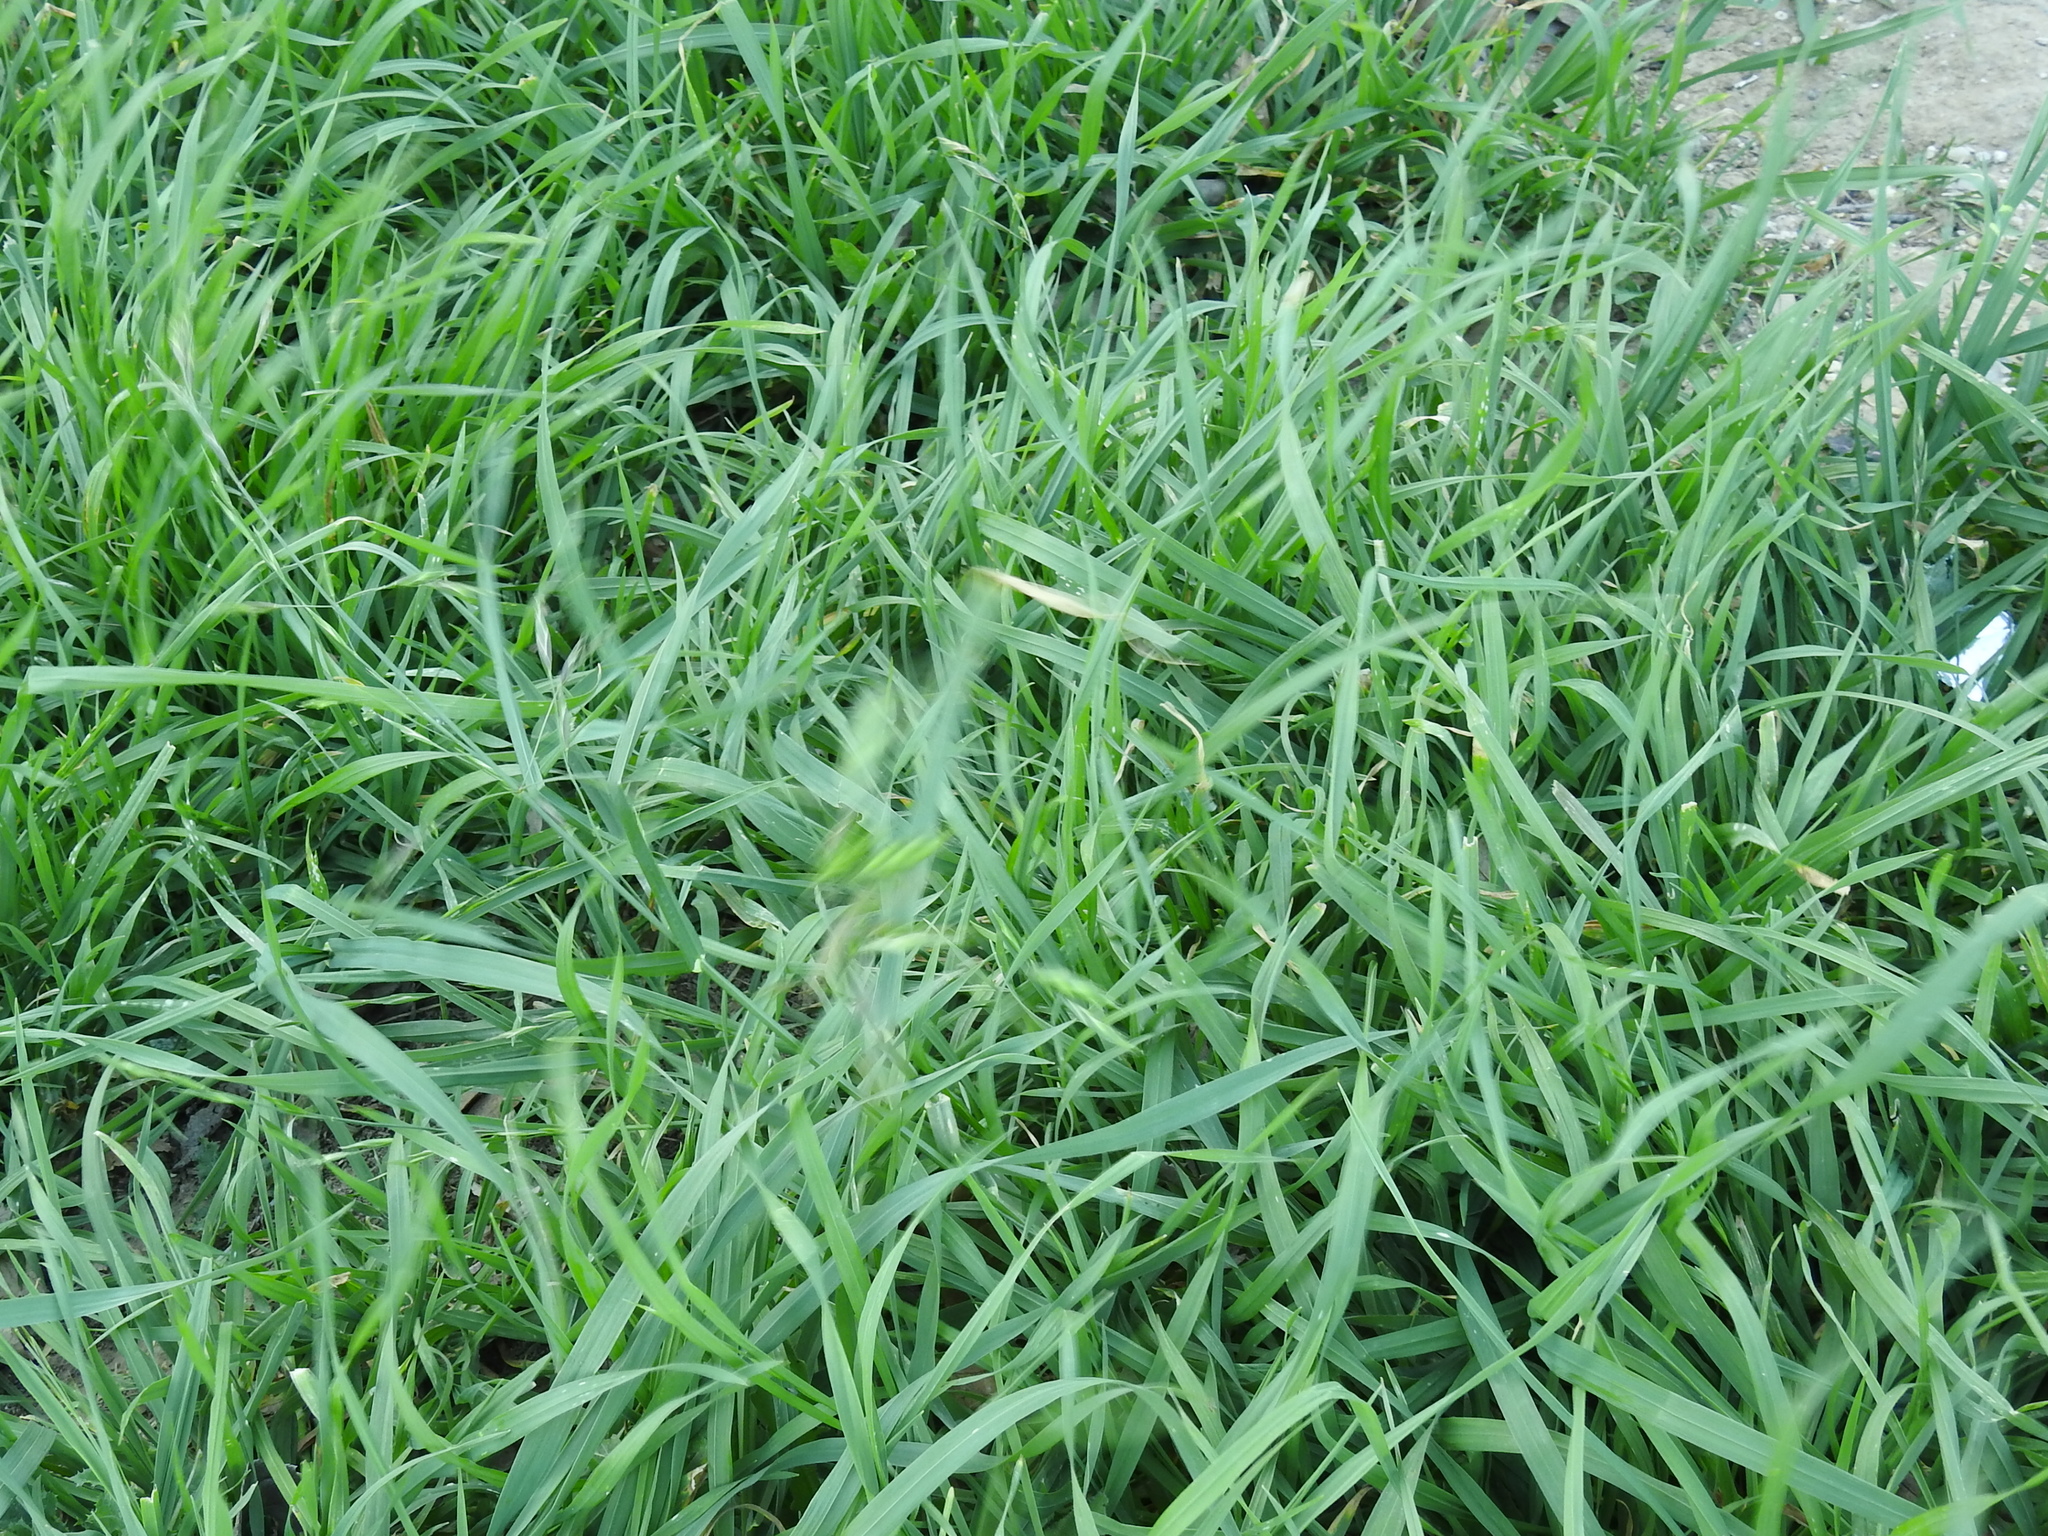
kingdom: Plantae
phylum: Tracheophyta
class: Liliopsida
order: Poales
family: Poaceae
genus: Bromus
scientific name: Bromus catharticus
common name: Rescuegrass
